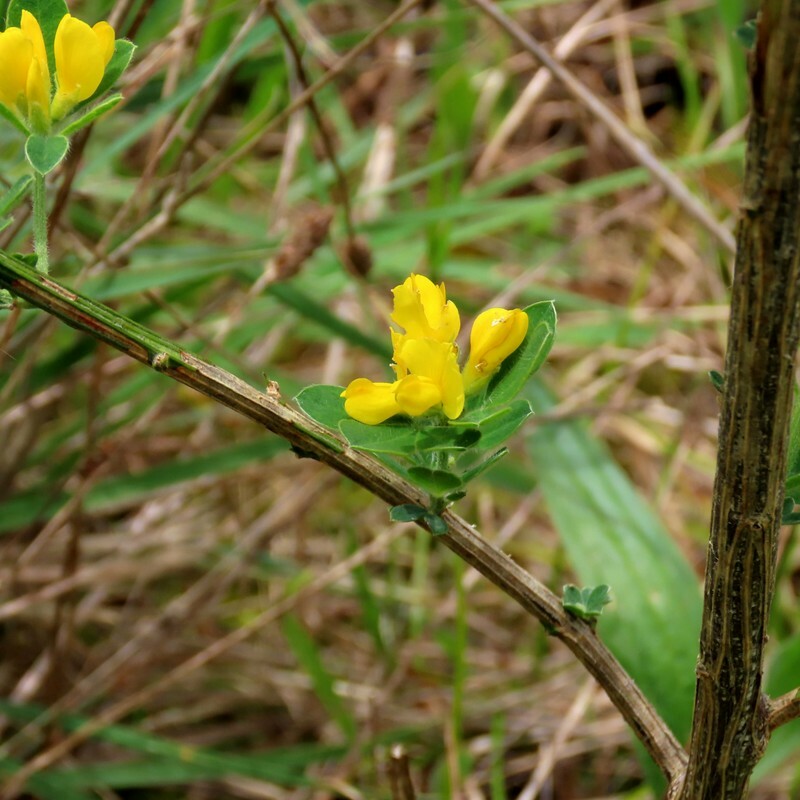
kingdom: Plantae
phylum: Tracheophyta
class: Magnoliopsida
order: Fabales
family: Fabaceae
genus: Genista
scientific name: Genista monspessulana
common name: Montpellier broom
